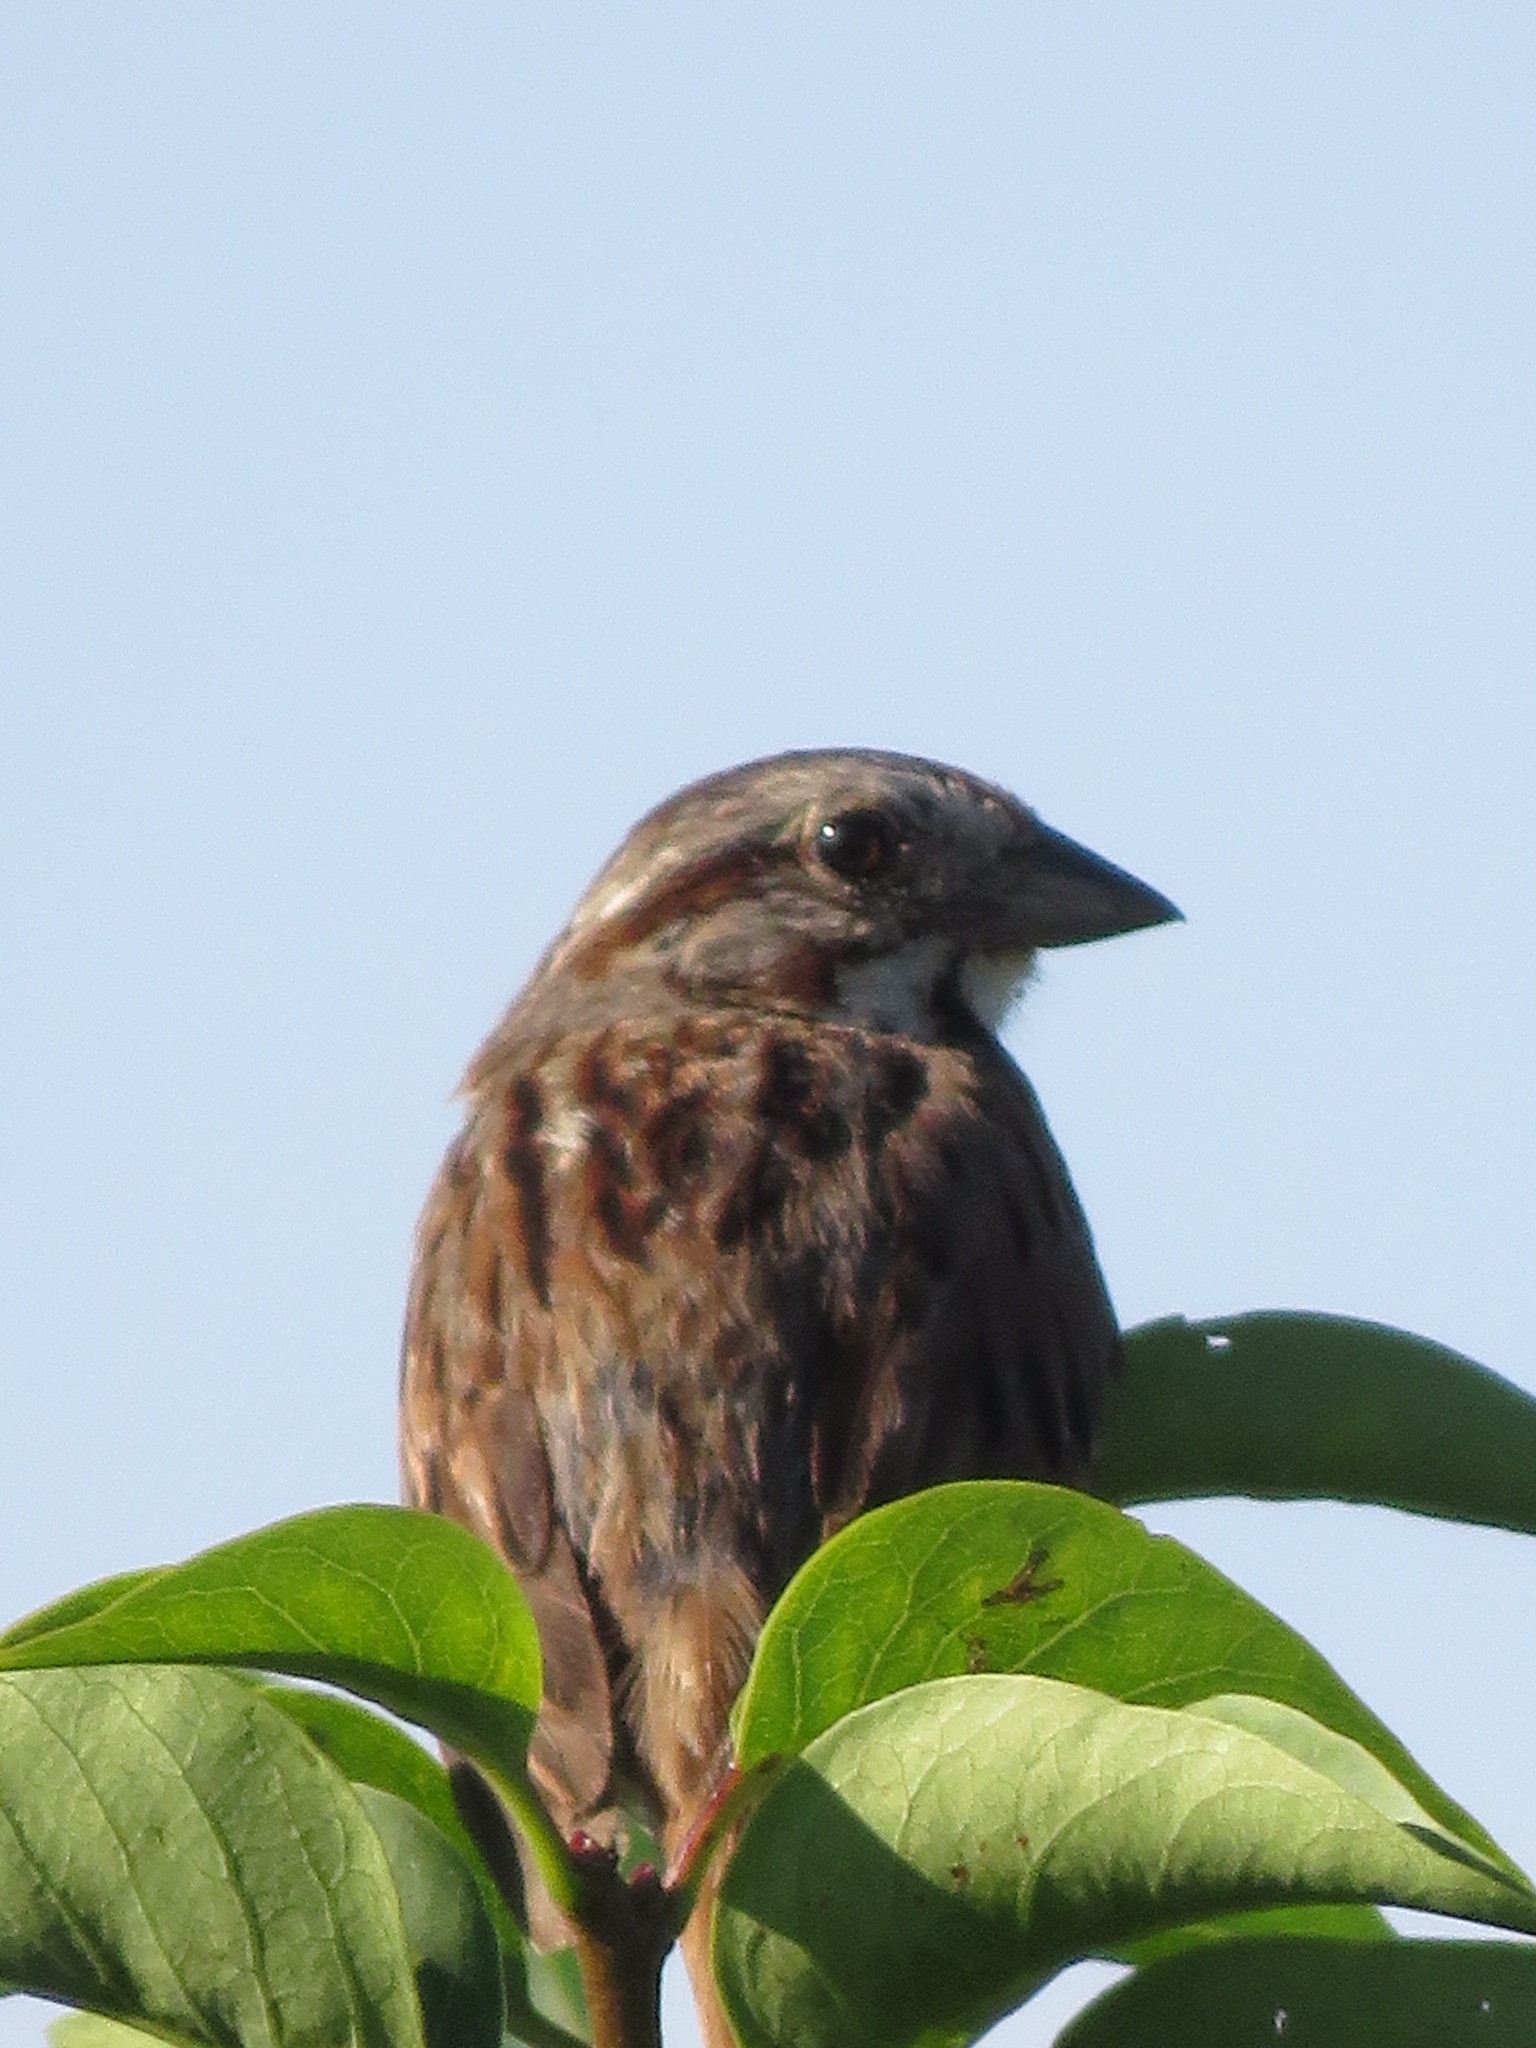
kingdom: Animalia
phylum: Chordata
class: Aves
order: Passeriformes
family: Passerellidae
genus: Melospiza
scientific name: Melospiza melodia
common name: Song sparrow
